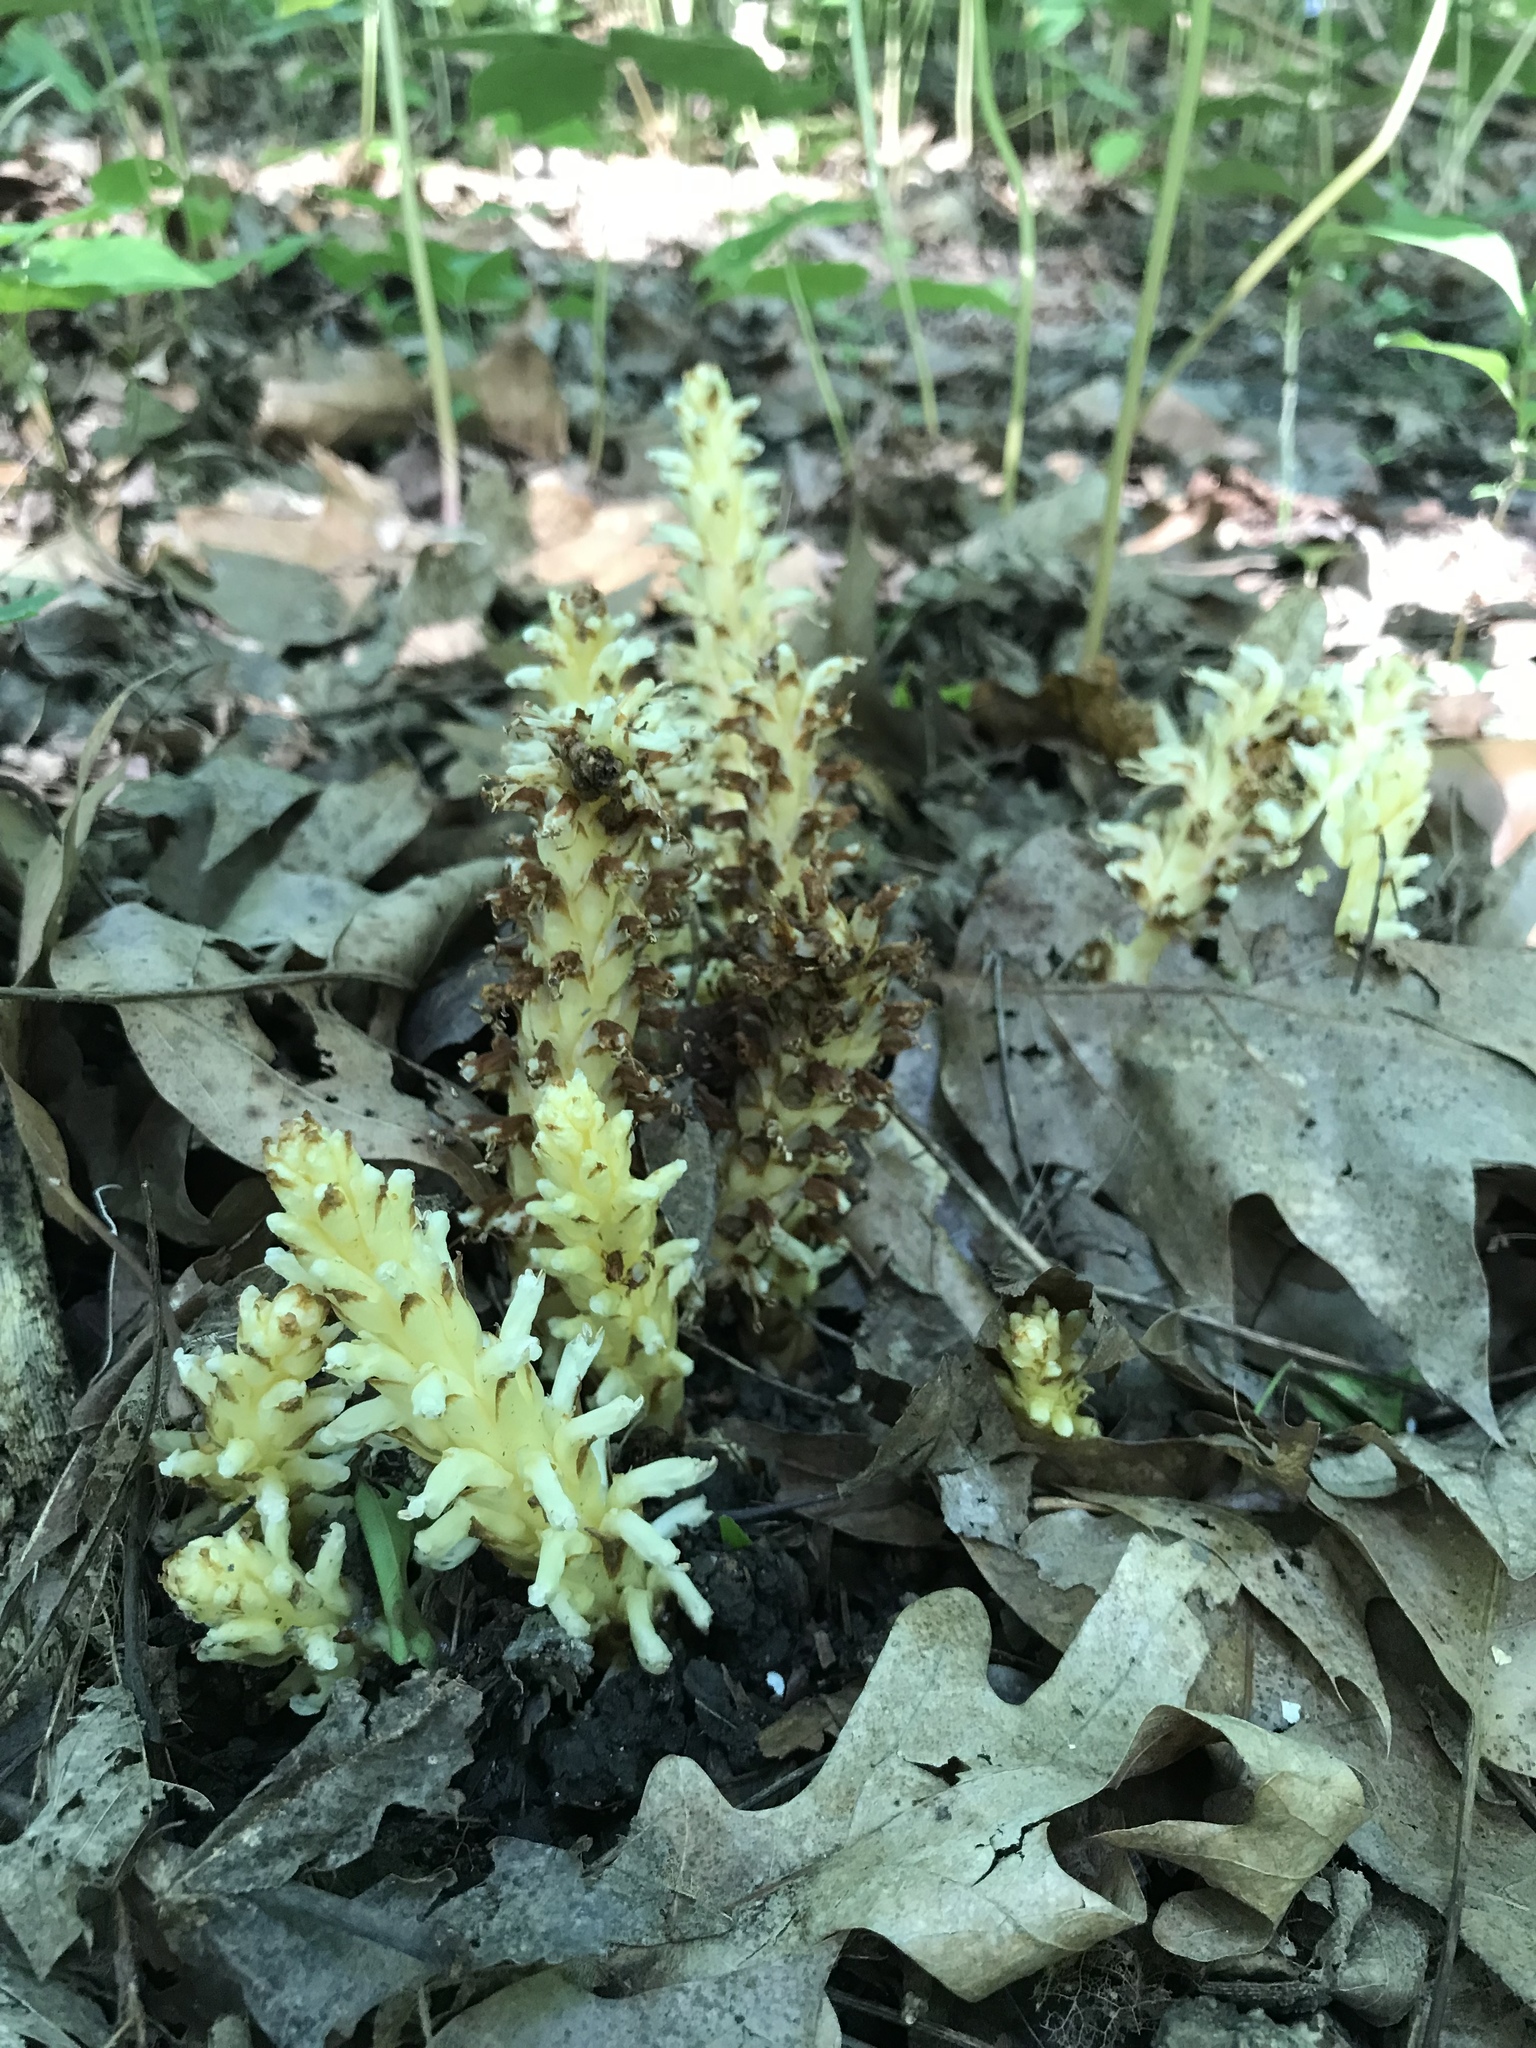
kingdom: Plantae
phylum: Tracheophyta
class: Magnoliopsida
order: Lamiales
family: Orobanchaceae
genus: Conopholis
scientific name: Conopholis americana
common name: American cancer-root
